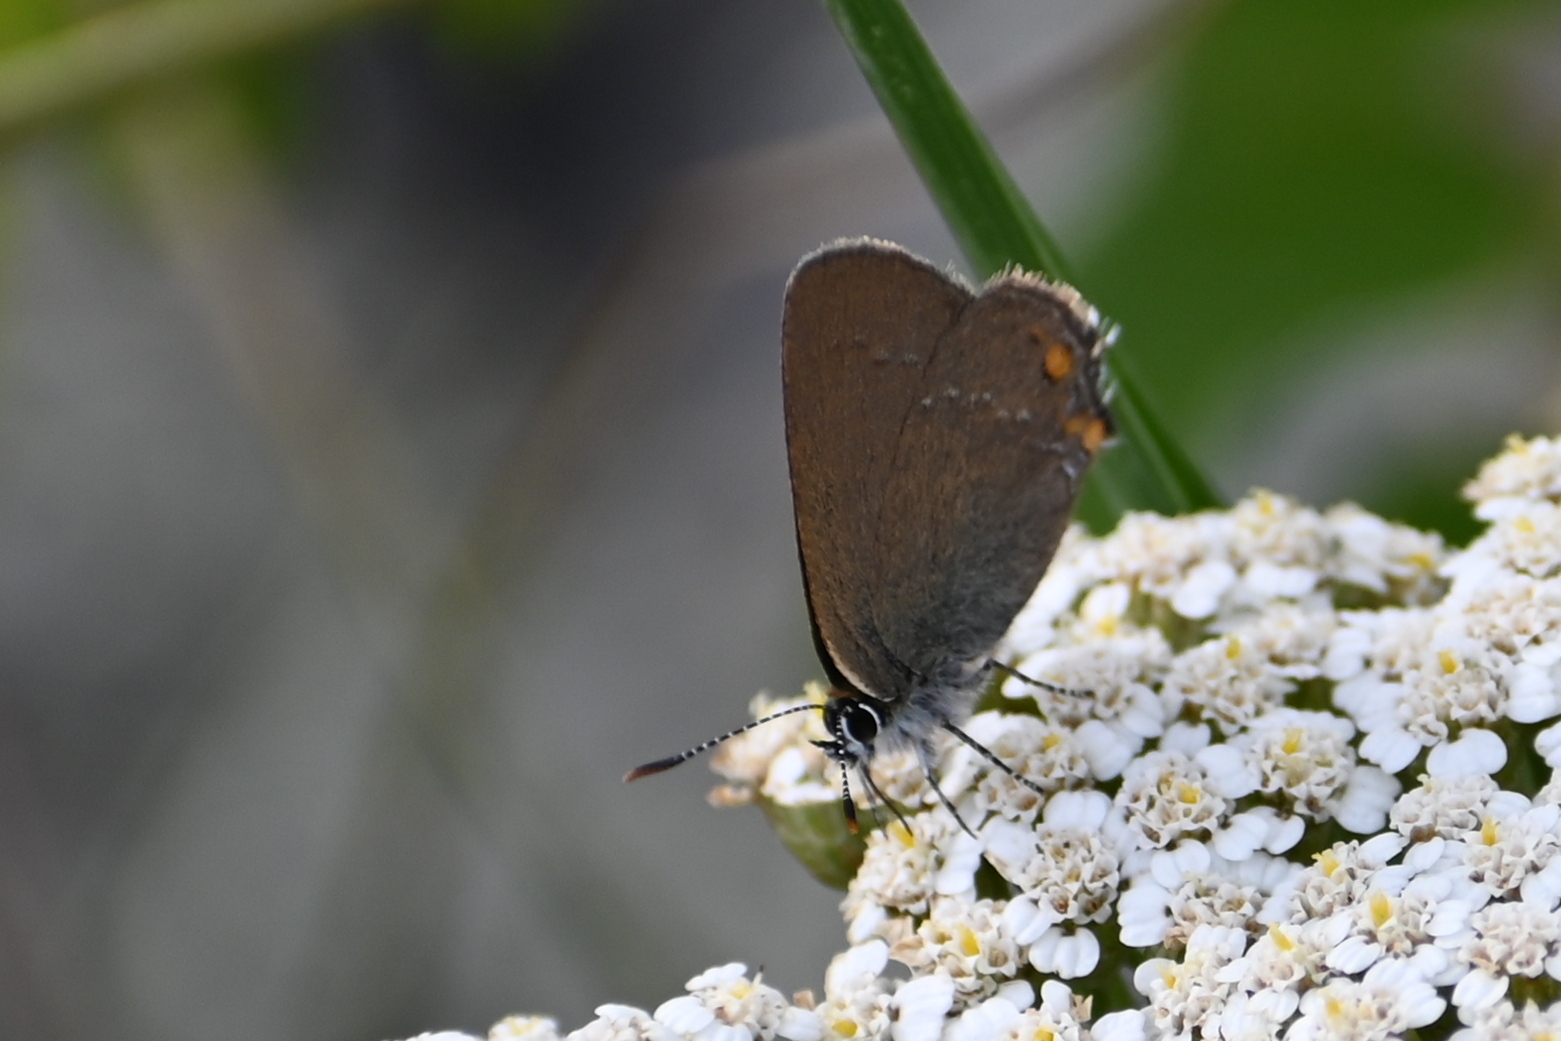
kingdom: Animalia
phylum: Arthropoda
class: Insecta
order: Lepidoptera
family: Lycaenidae
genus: Strymon
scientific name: Strymon acaciae
